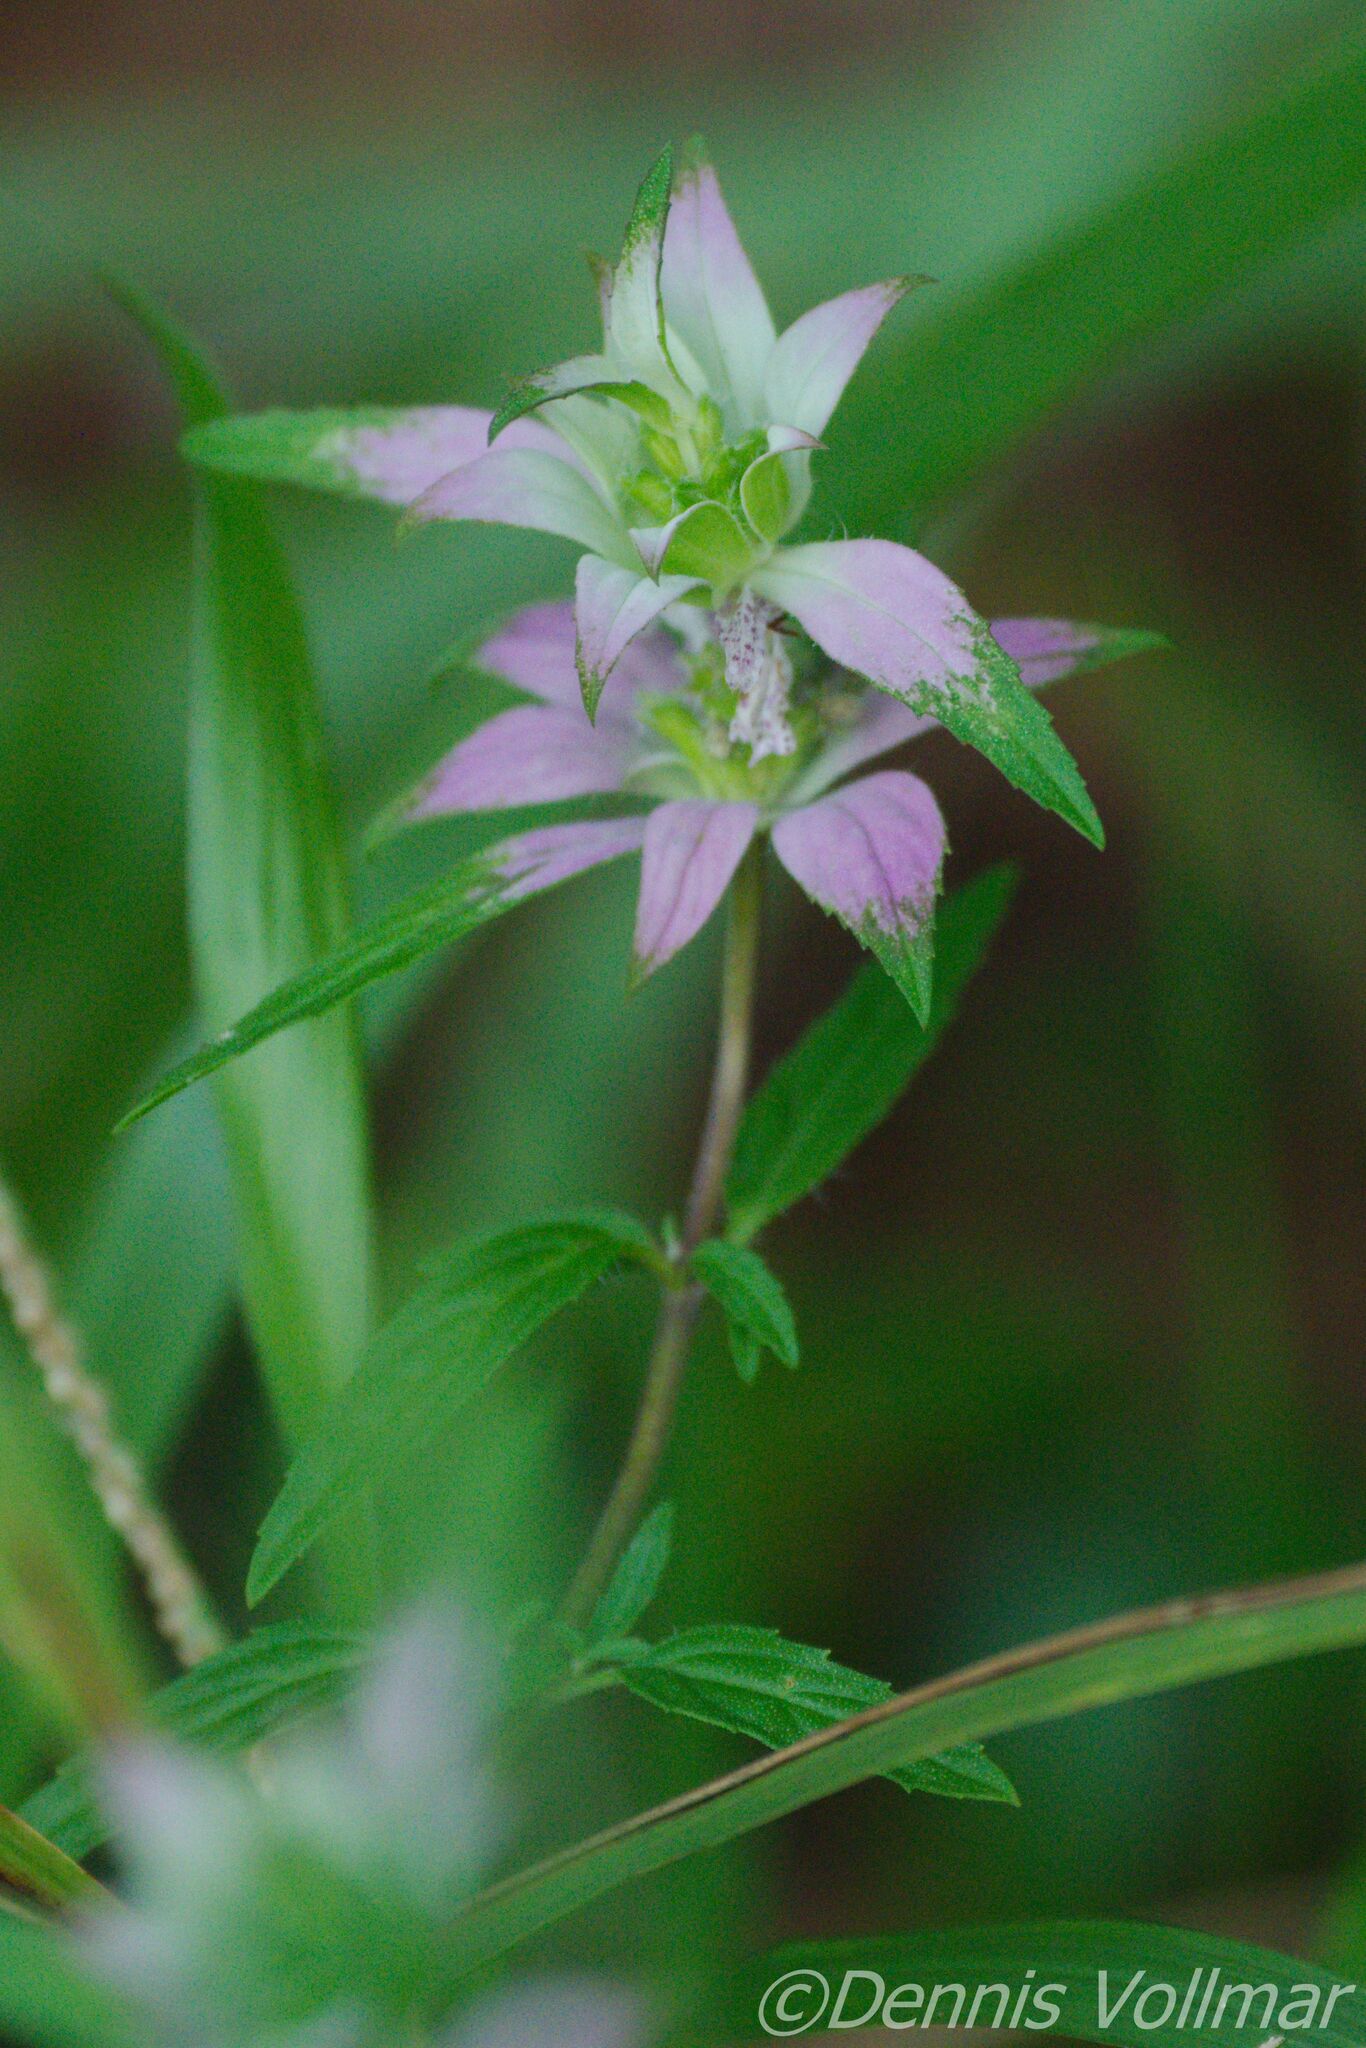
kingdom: Plantae
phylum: Tracheophyta
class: Magnoliopsida
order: Lamiales
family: Lamiaceae
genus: Monarda
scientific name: Monarda punctata
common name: Dotted monarda
